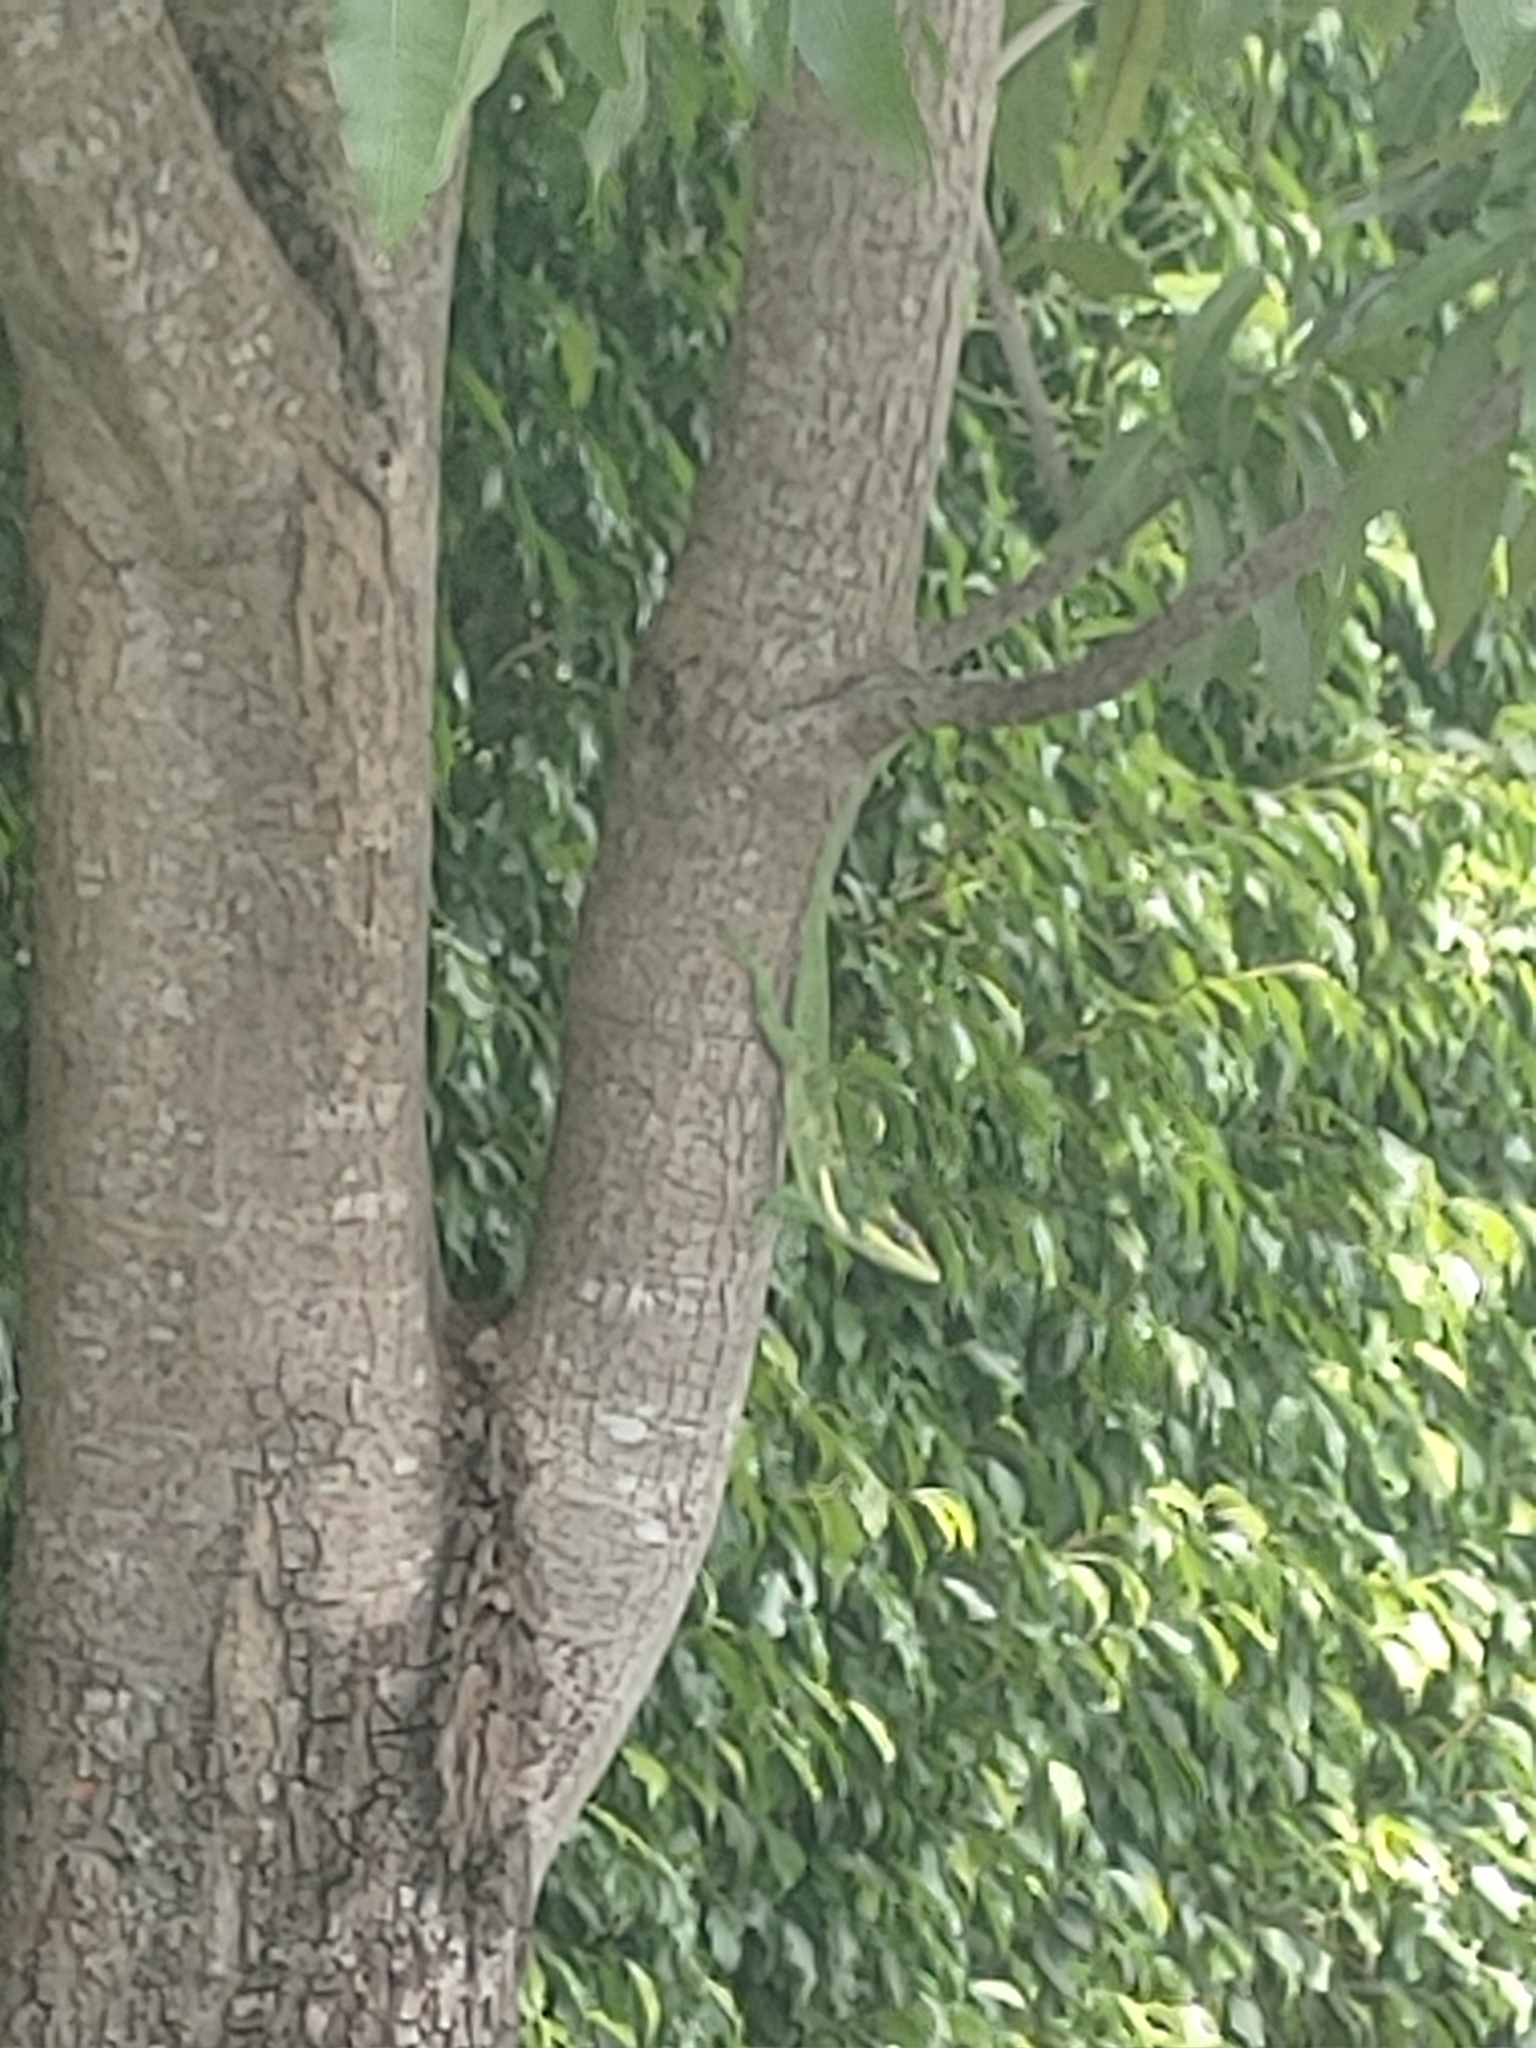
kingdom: Animalia
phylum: Chordata
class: Squamata
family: Dactyloidae
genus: Anolis
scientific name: Anolis equestris
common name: Knight anole
